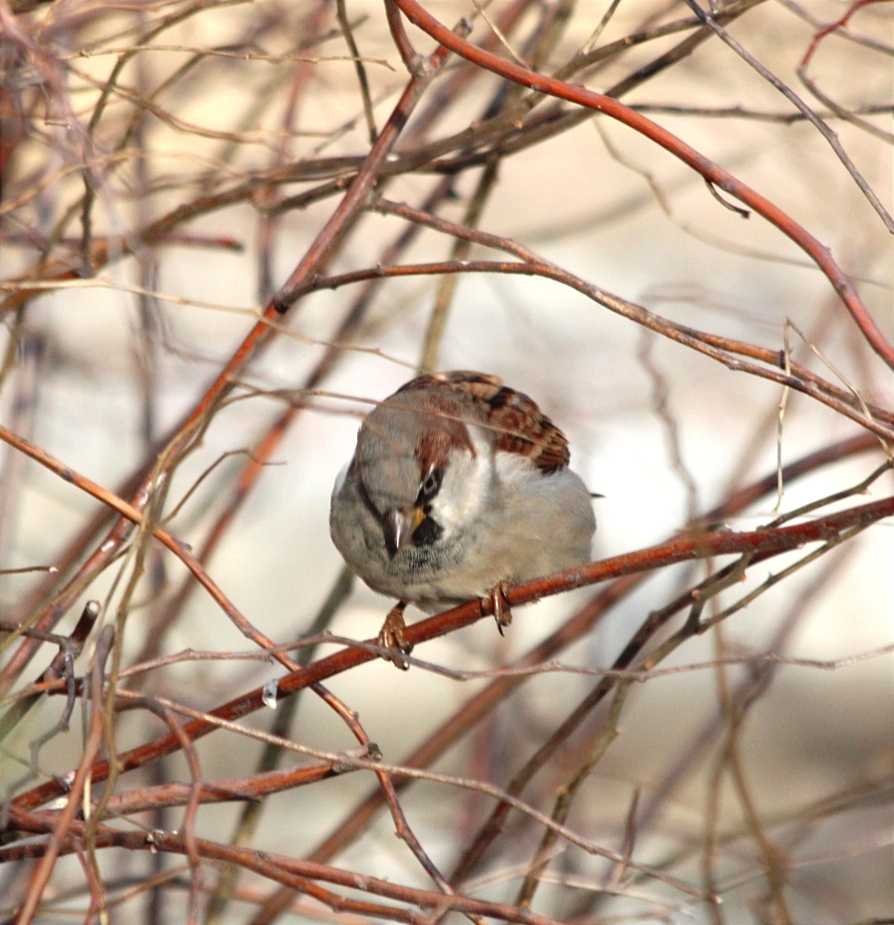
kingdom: Animalia
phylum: Chordata
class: Aves
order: Passeriformes
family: Passeridae
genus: Passer
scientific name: Passer domesticus
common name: House sparrow
